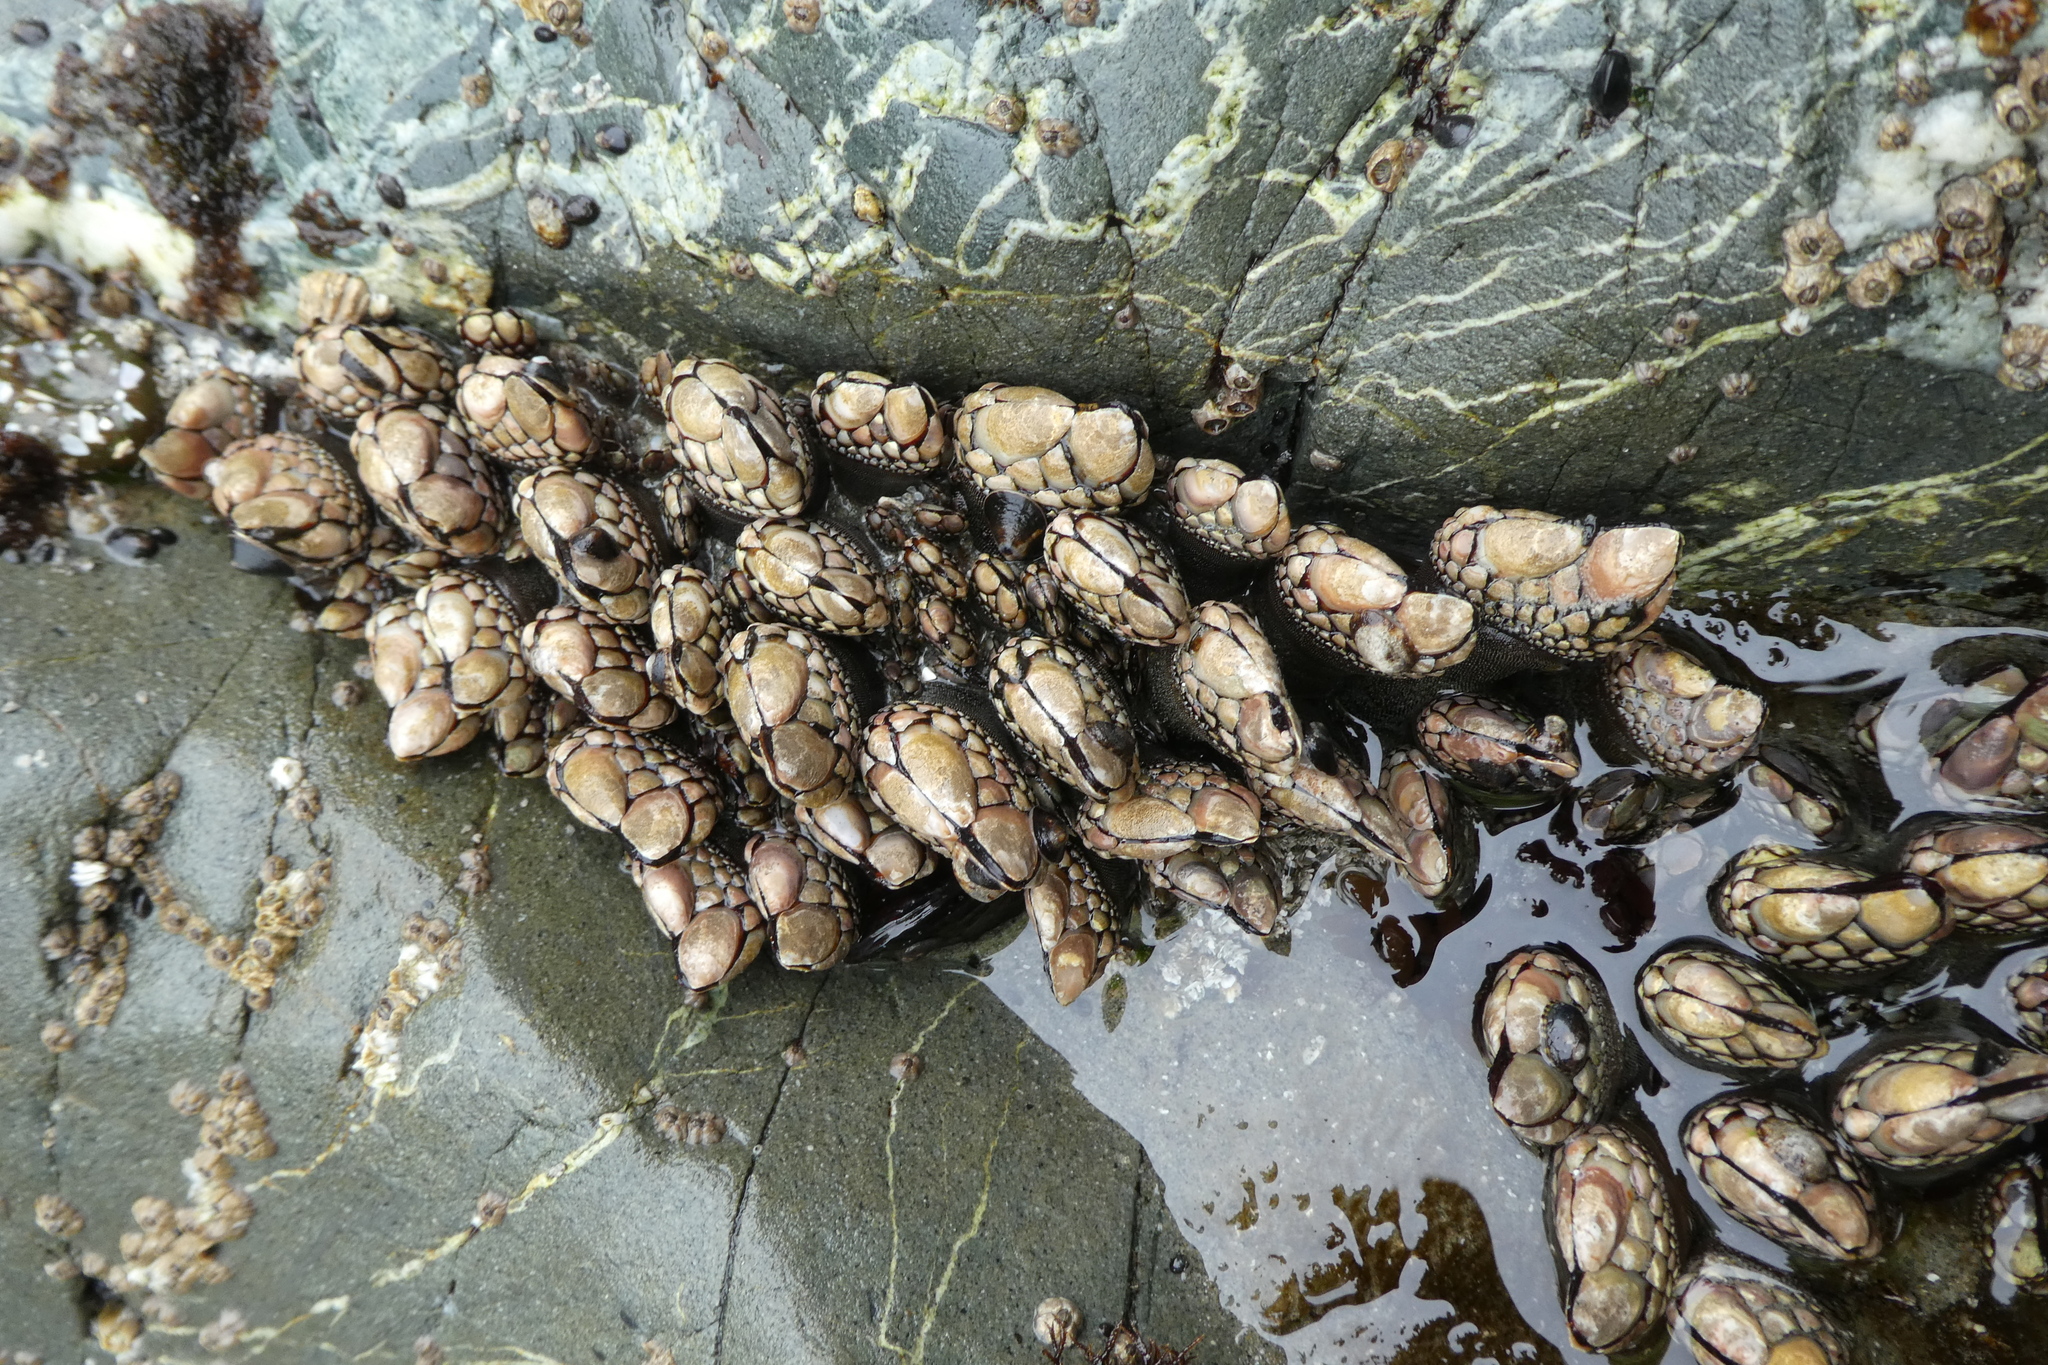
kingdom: Animalia
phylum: Arthropoda
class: Maxillopoda
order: Pedunculata
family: Pollicipedidae
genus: Pollicipes
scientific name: Pollicipes polymerus
